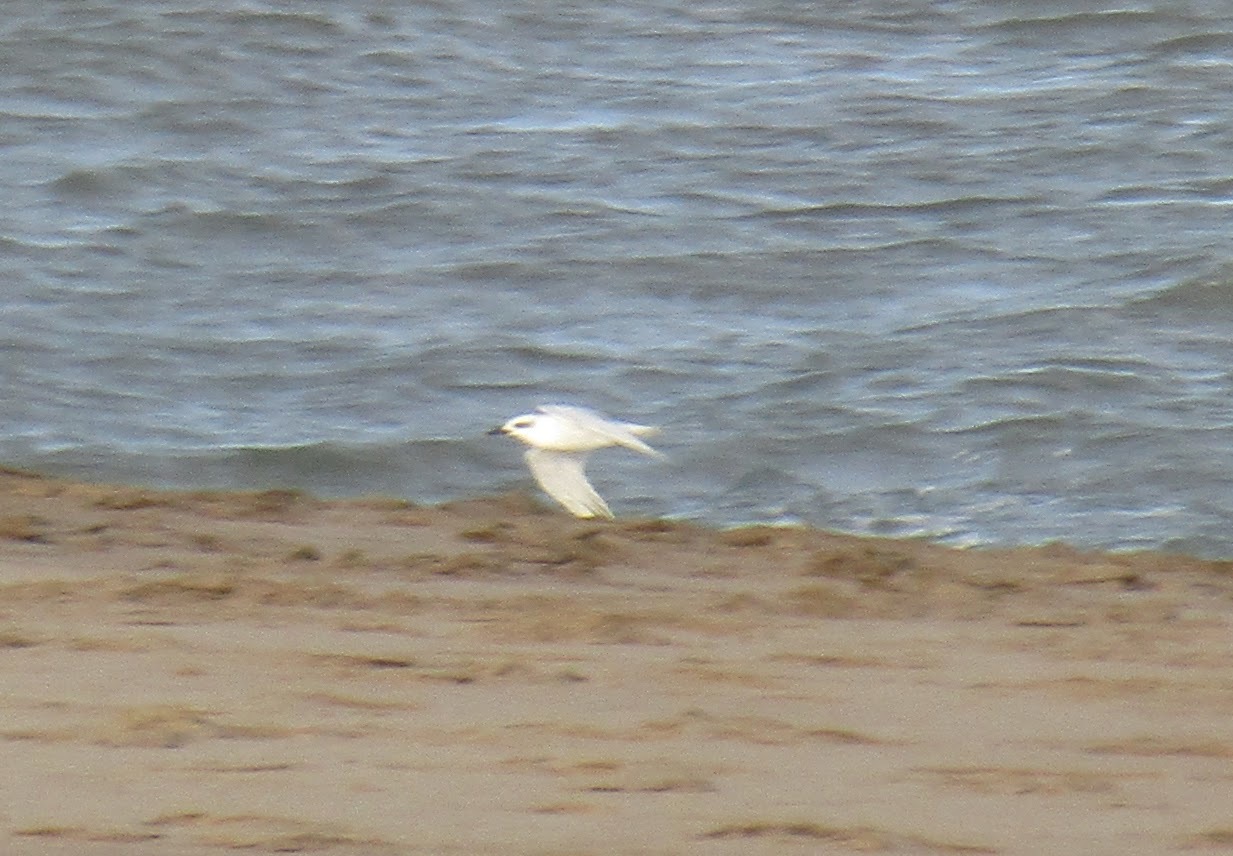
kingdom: Animalia
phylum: Chordata
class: Aves
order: Charadriiformes
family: Laridae
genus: Sterna
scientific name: Sterna trudeaui
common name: Snowy-crowned tern
